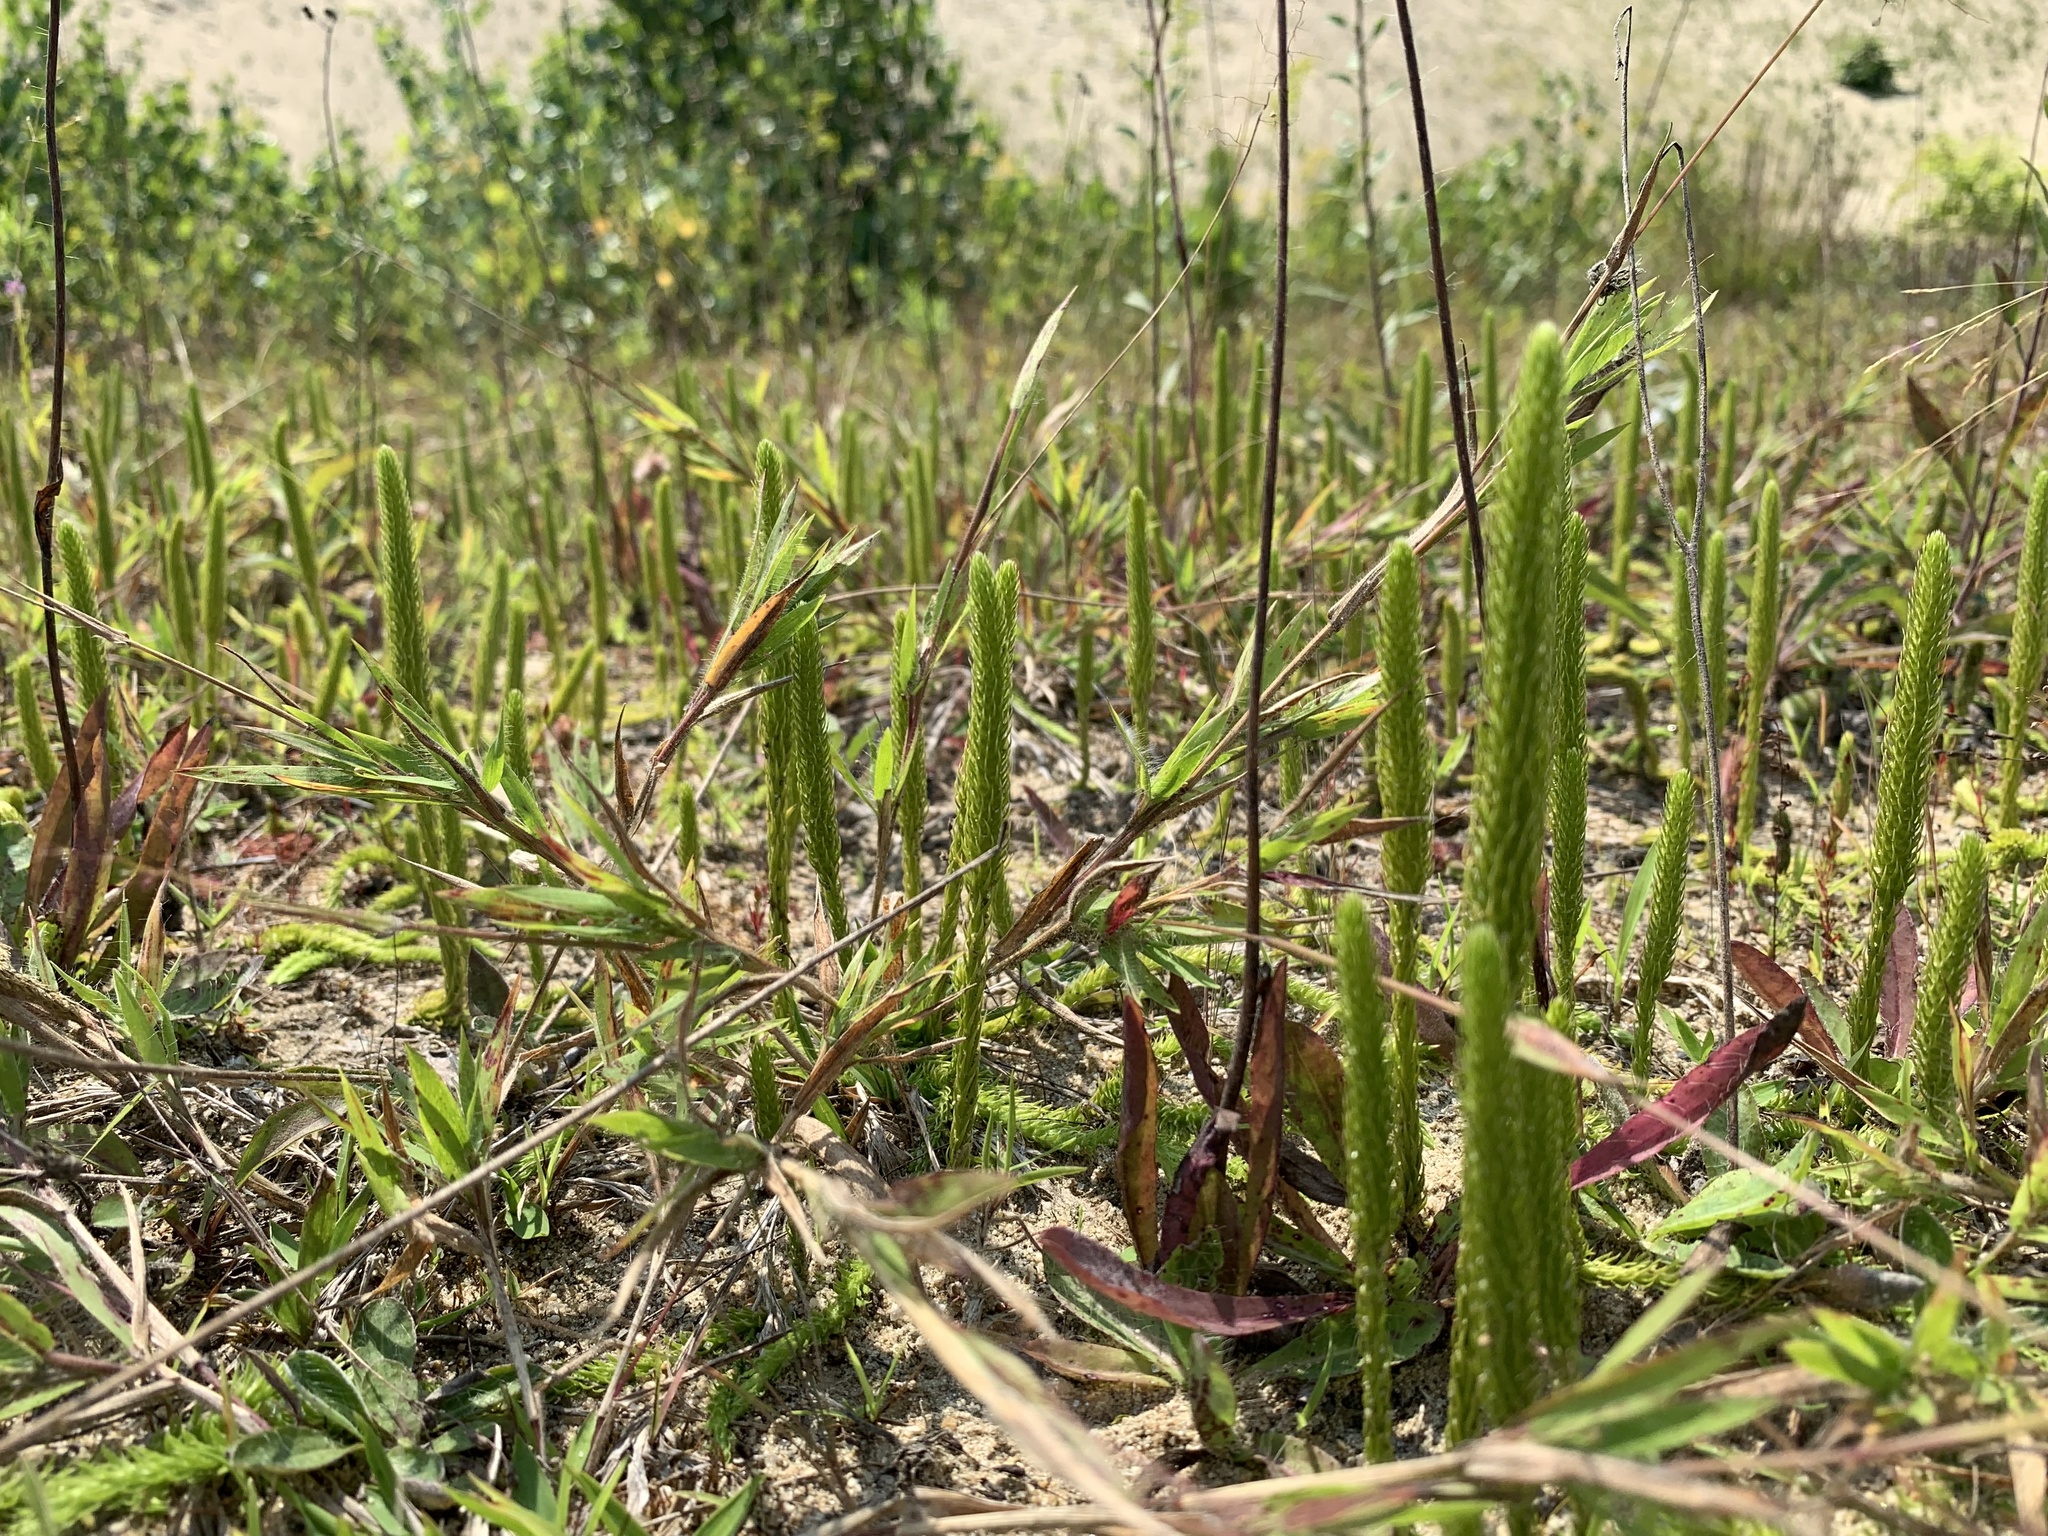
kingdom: Plantae
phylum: Tracheophyta
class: Lycopodiopsida
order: Lycopodiales
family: Lycopodiaceae
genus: Lycopodiella
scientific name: Lycopodiella appressa
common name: Appressed bog clubmoss
